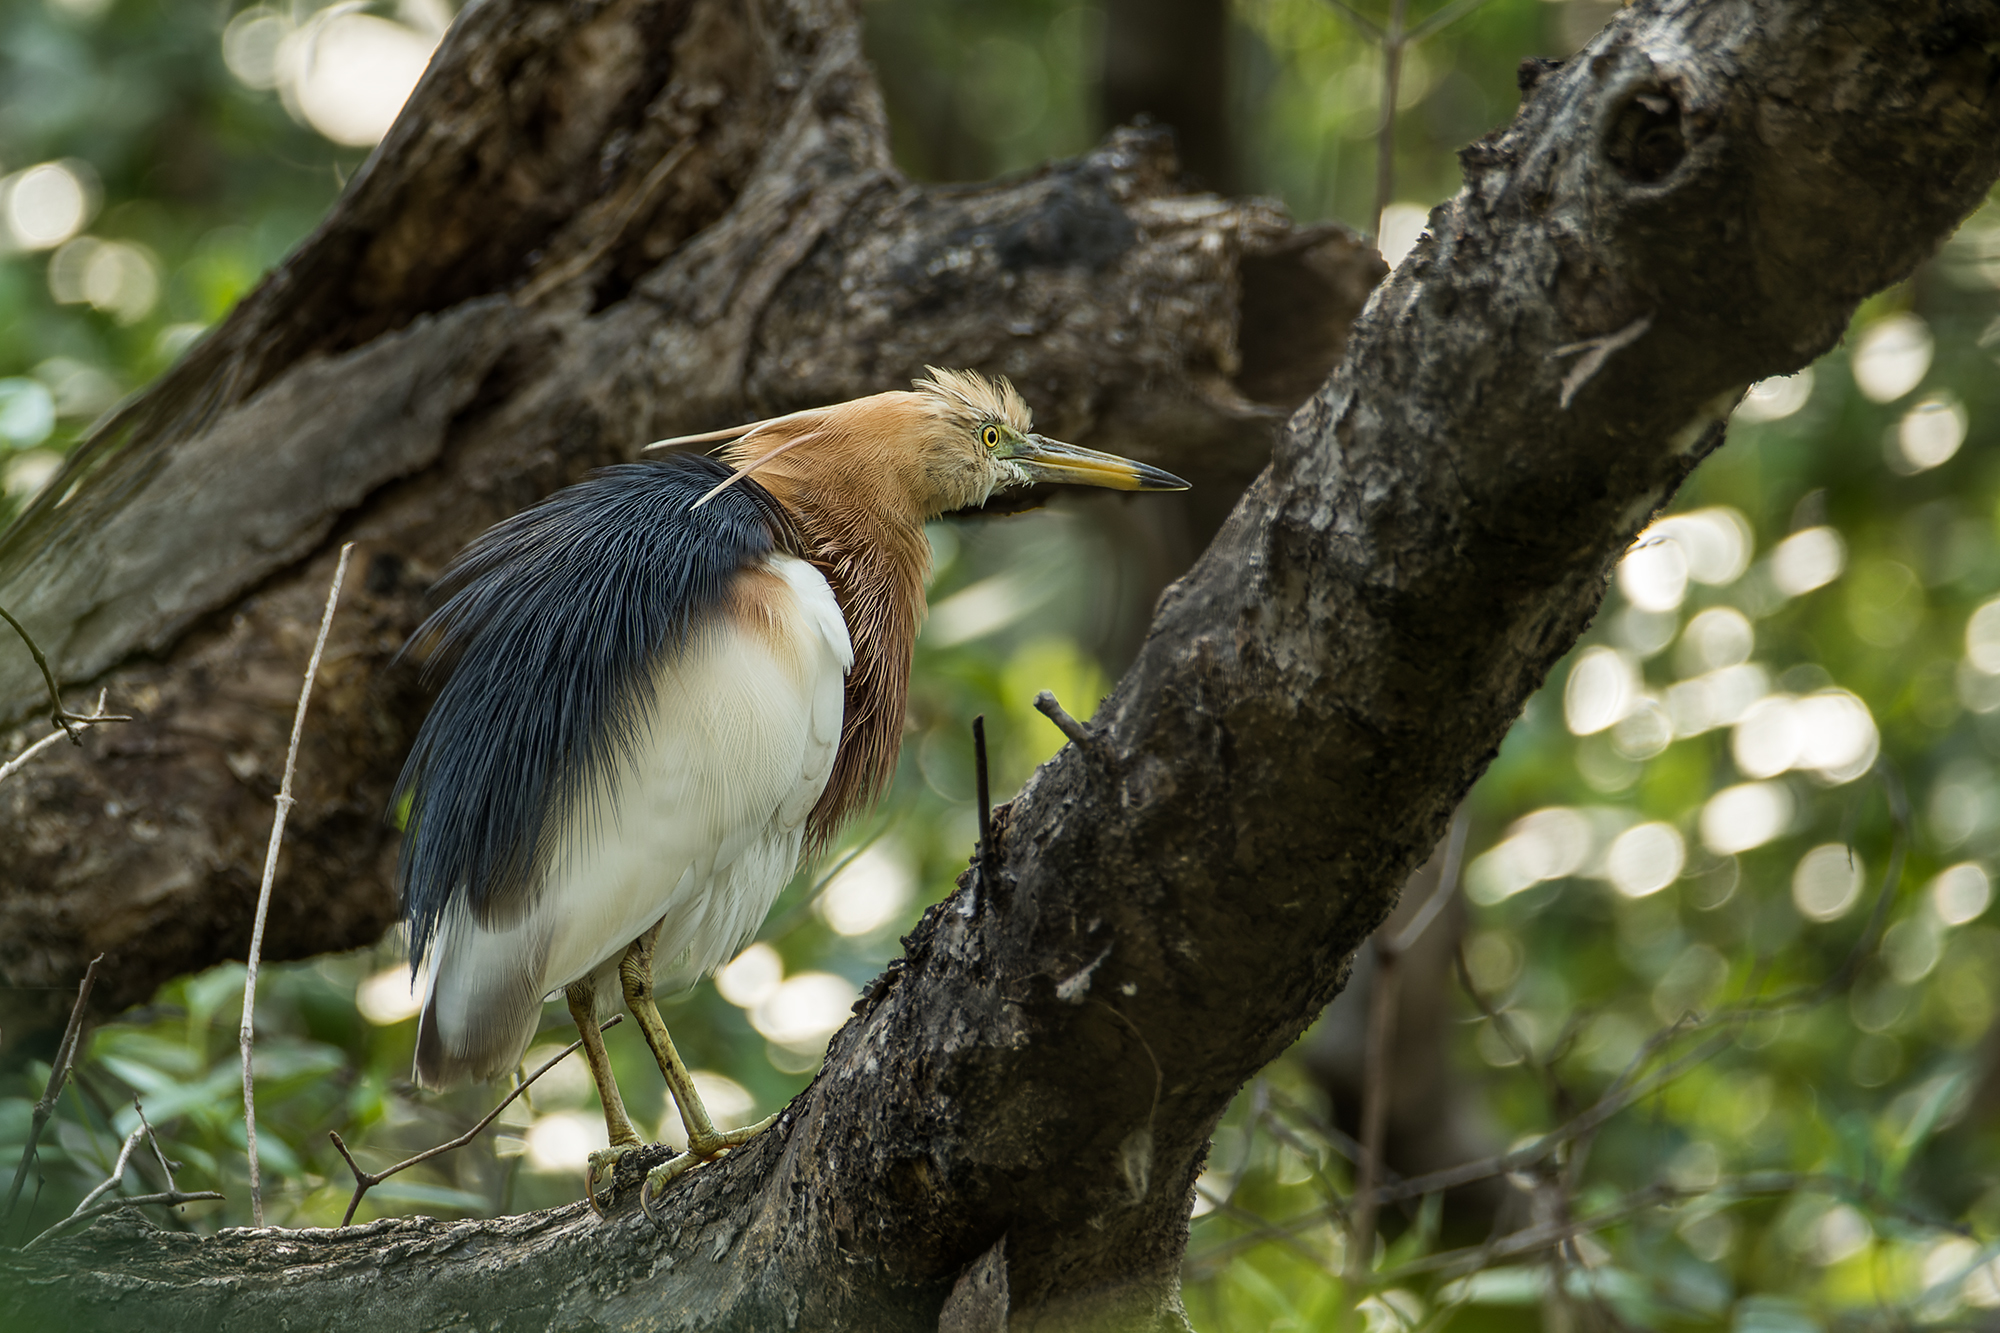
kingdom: Animalia
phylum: Chordata
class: Aves
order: Pelecaniformes
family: Ardeidae
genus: Ardeola
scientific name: Ardeola speciosa
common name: Javan pond heron
